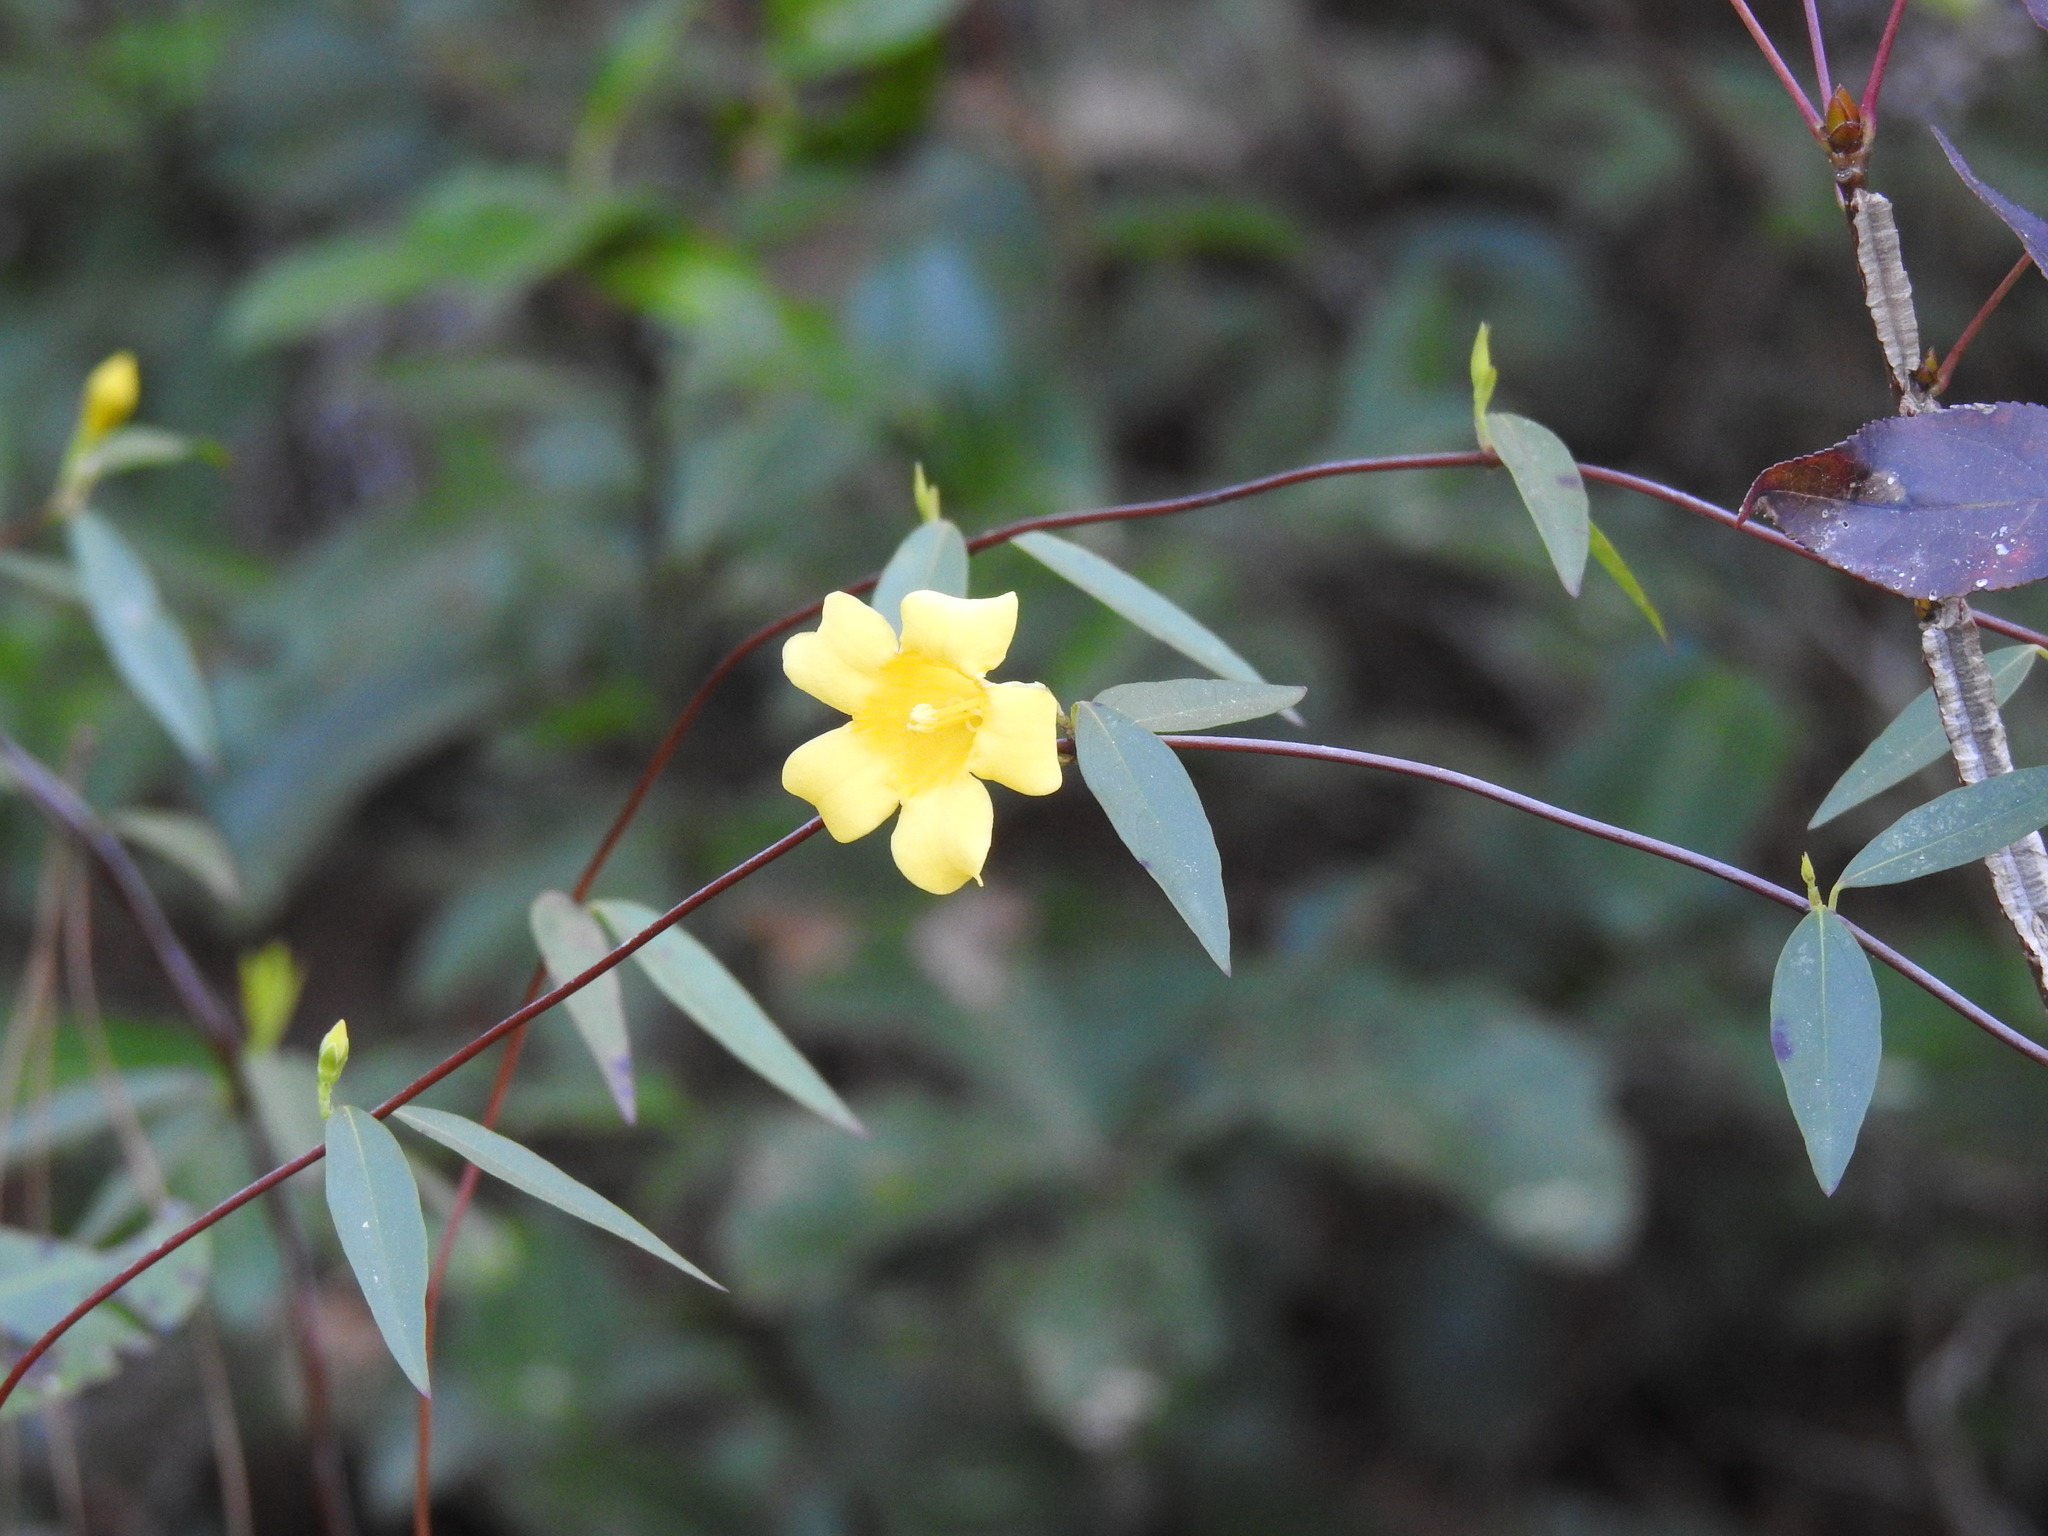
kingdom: Plantae
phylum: Tracheophyta
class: Magnoliopsida
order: Gentianales
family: Gelsemiaceae
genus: Gelsemium
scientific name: Gelsemium sempervirens
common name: Carolina-jasmine
